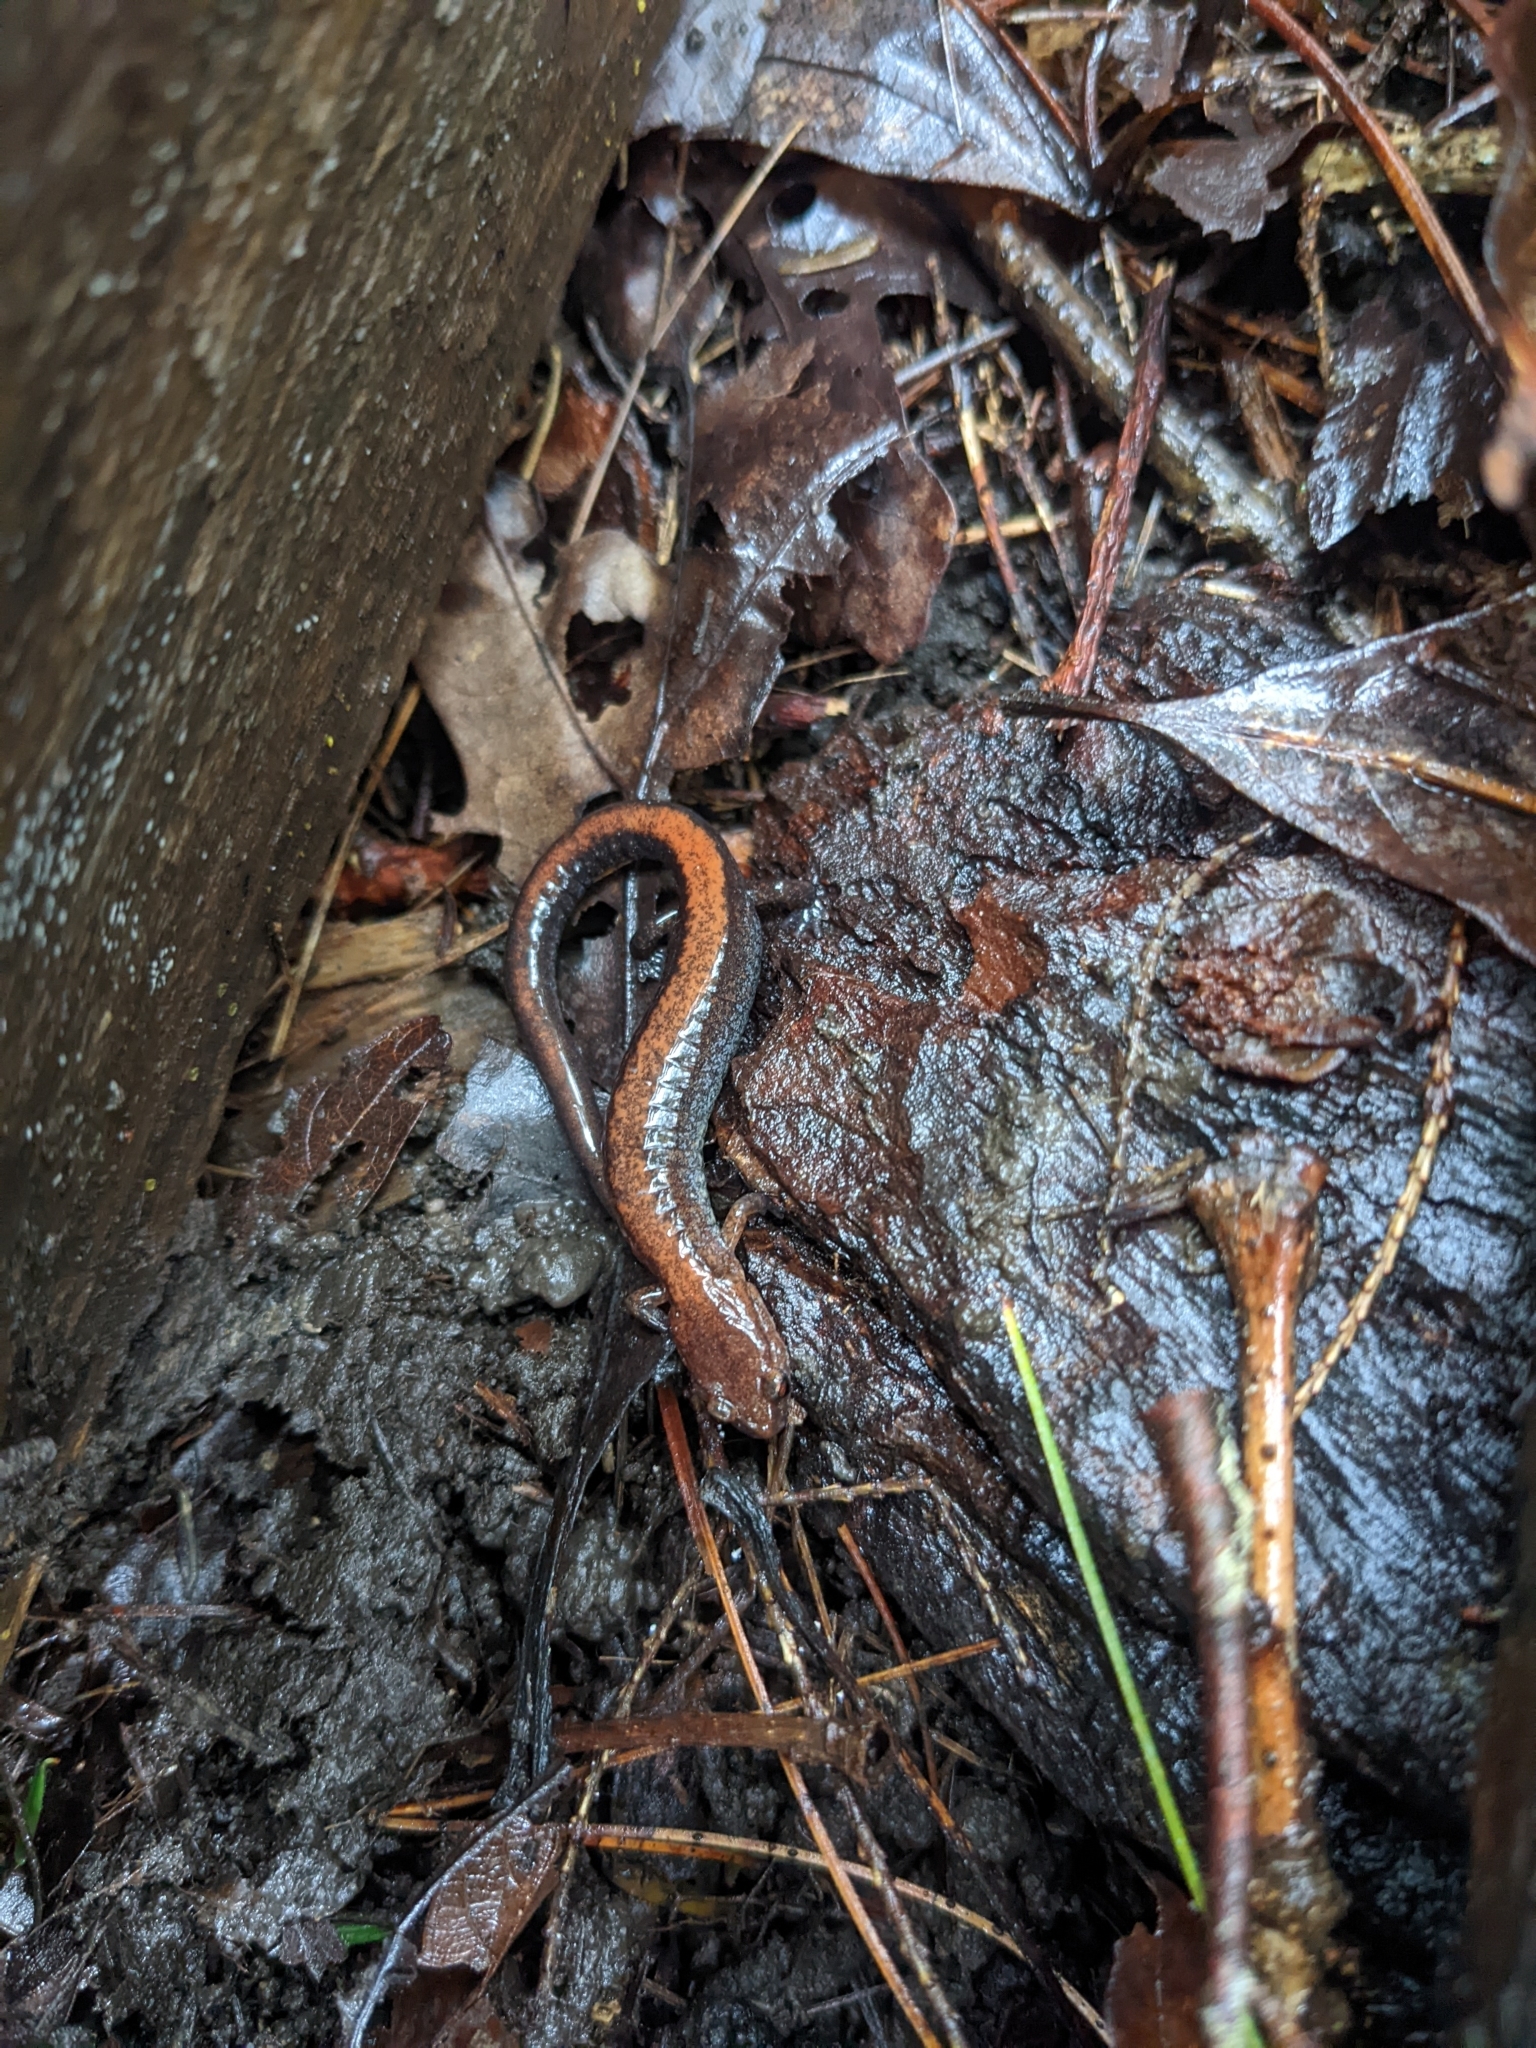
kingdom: Animalia
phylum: Chordata
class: Amphibia
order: Caudata
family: Plethodontidae
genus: Plethodon
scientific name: Plethodon cinereus
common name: Redback salamander
